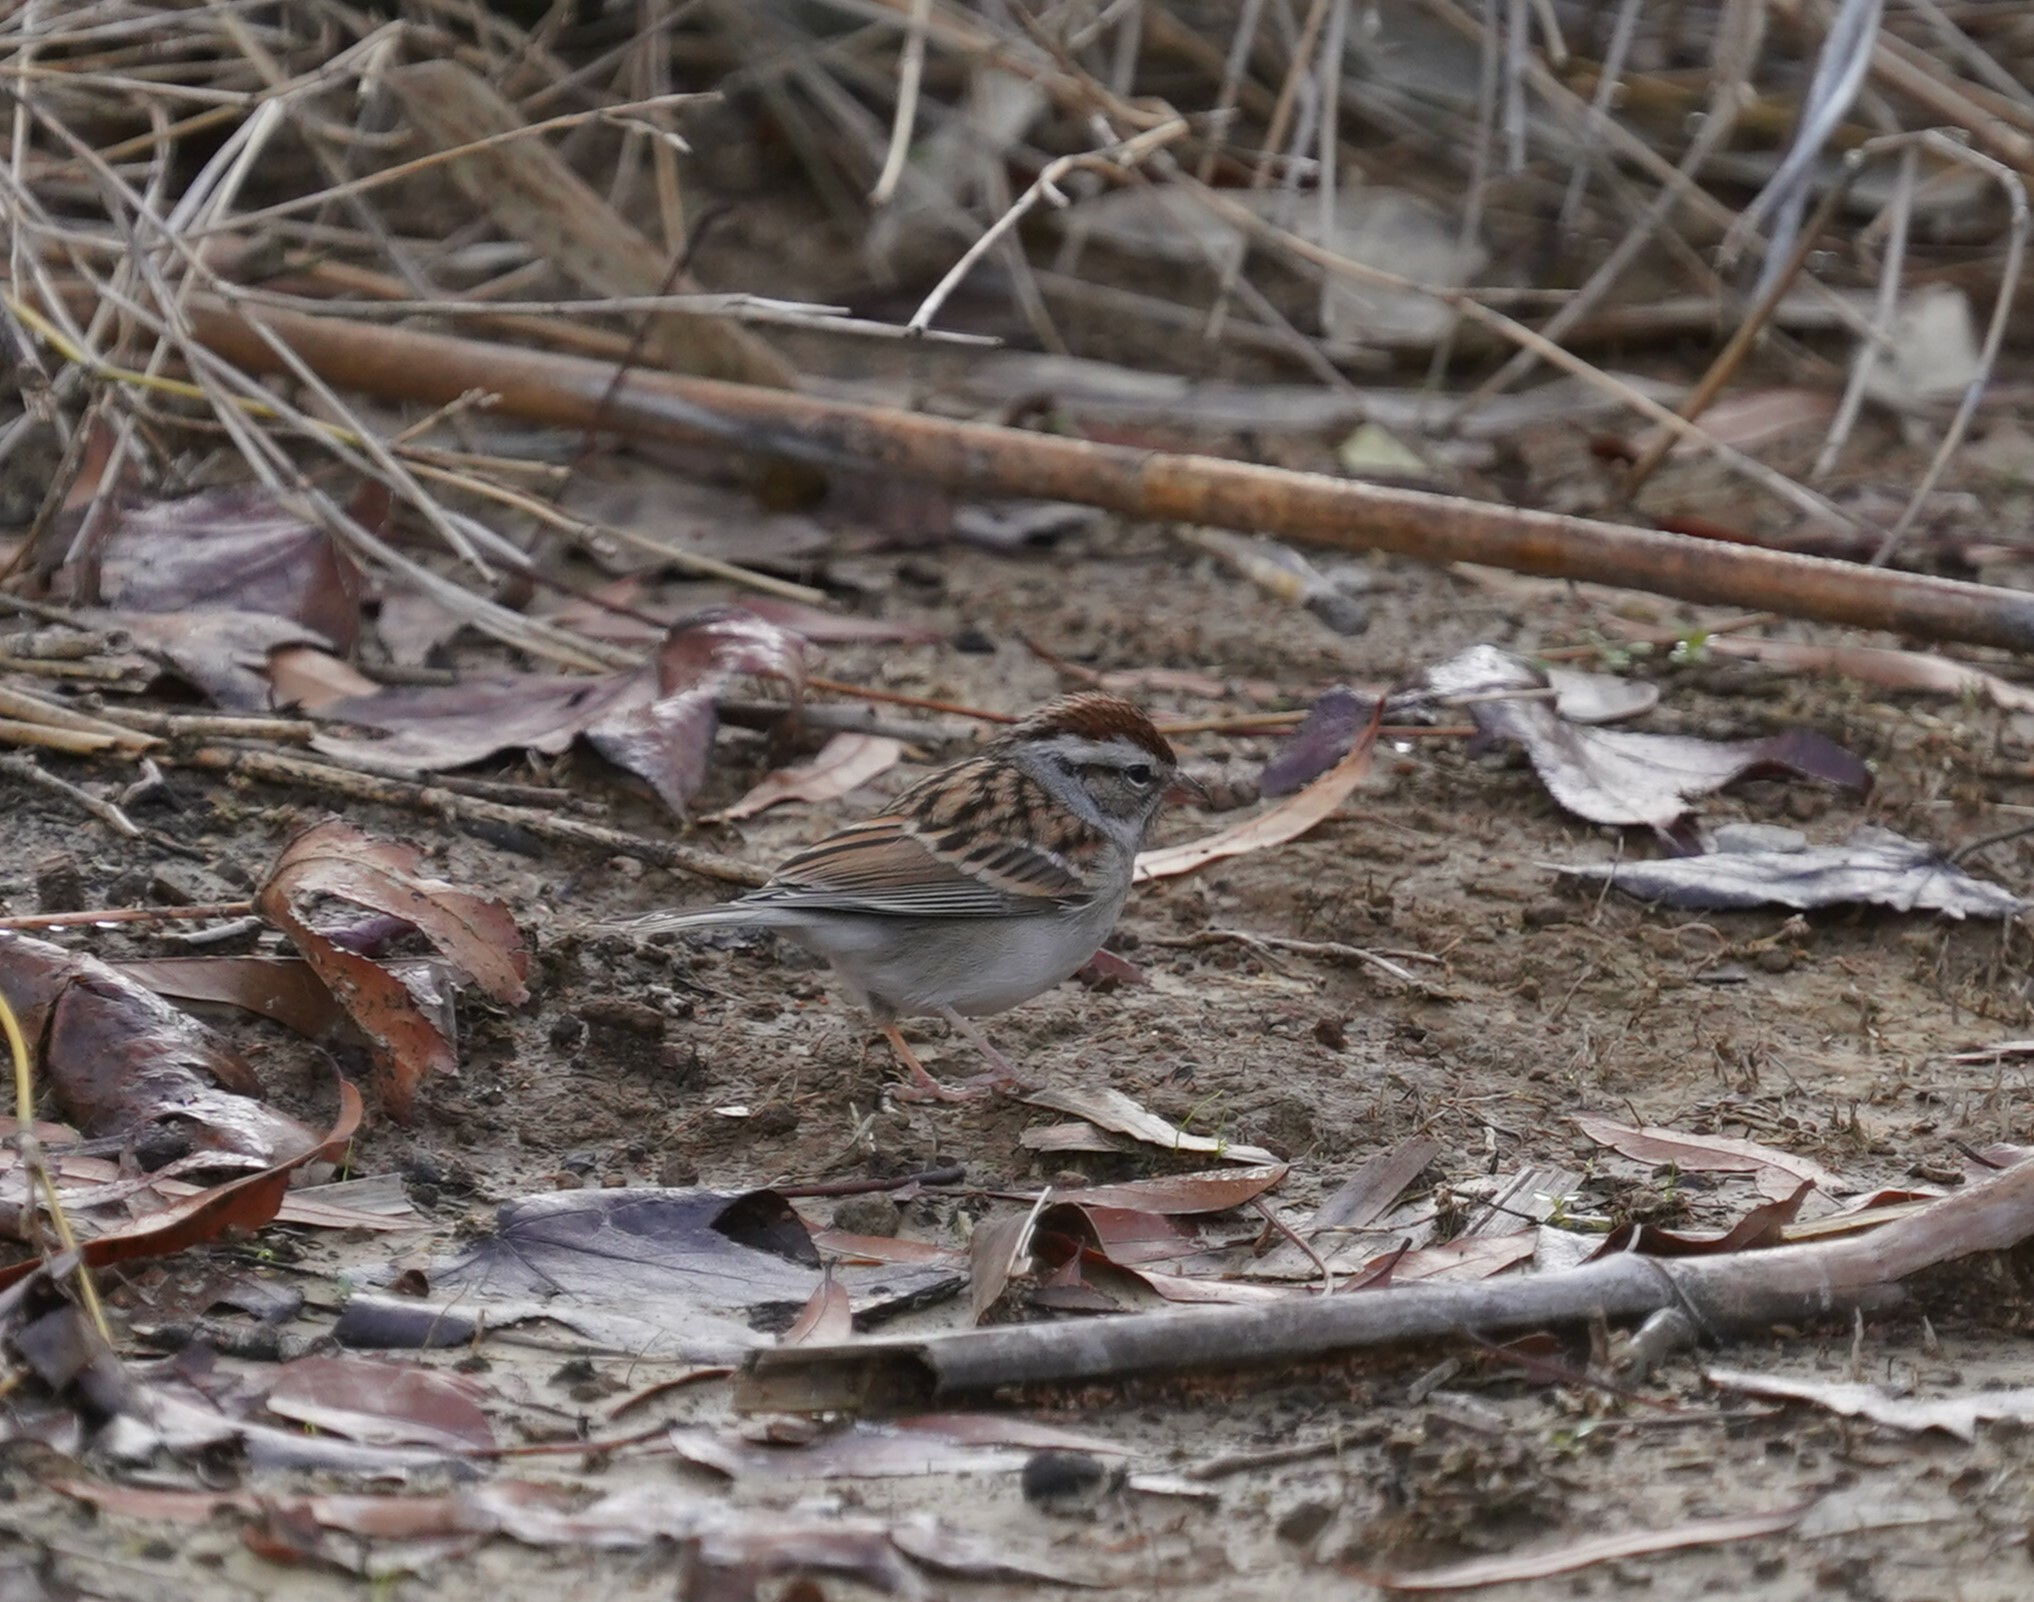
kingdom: Animalia
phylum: Chordata
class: Aves
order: Passeriformes
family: Passerellidae
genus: Spizella
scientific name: Spizella passerina
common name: Chipping sparrow
